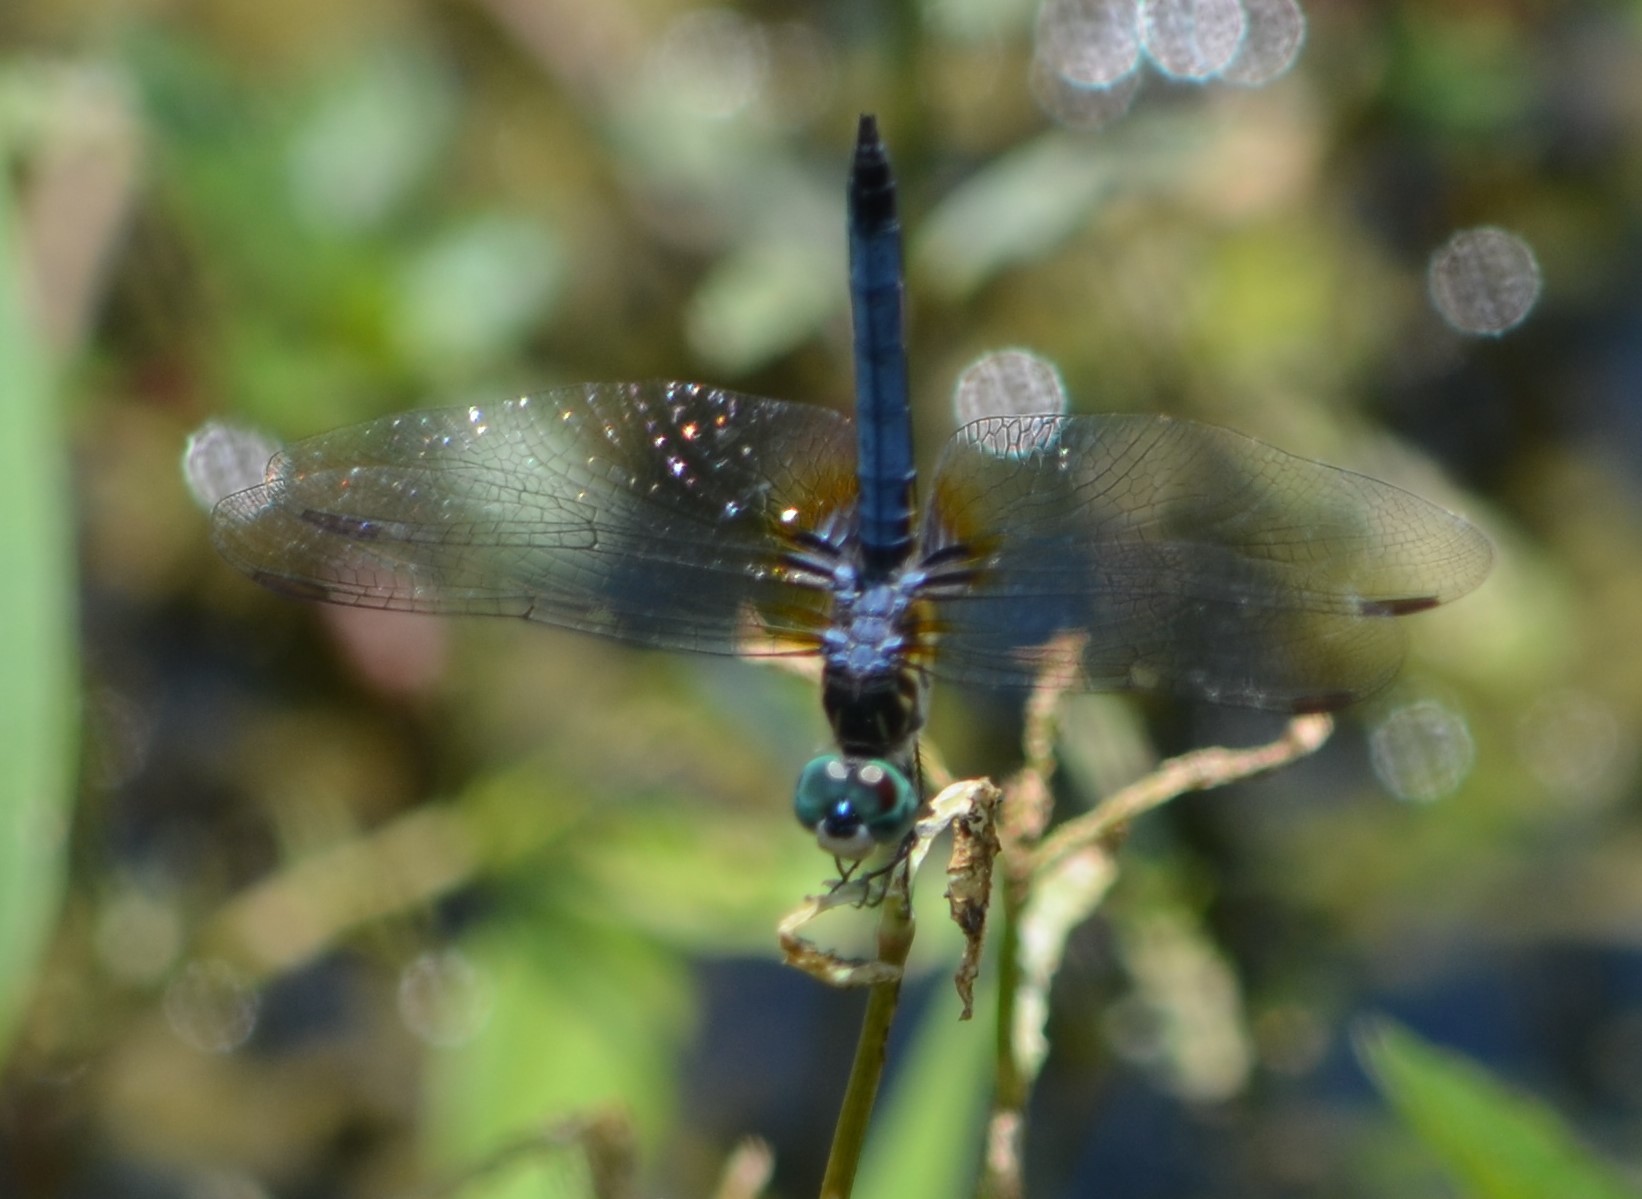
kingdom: Animalia
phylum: Arthropoda
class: Insecta
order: Odonata
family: Libellulidae
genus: Pachydiplax
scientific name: Pachydiplax longipennis
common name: Blue dasher
